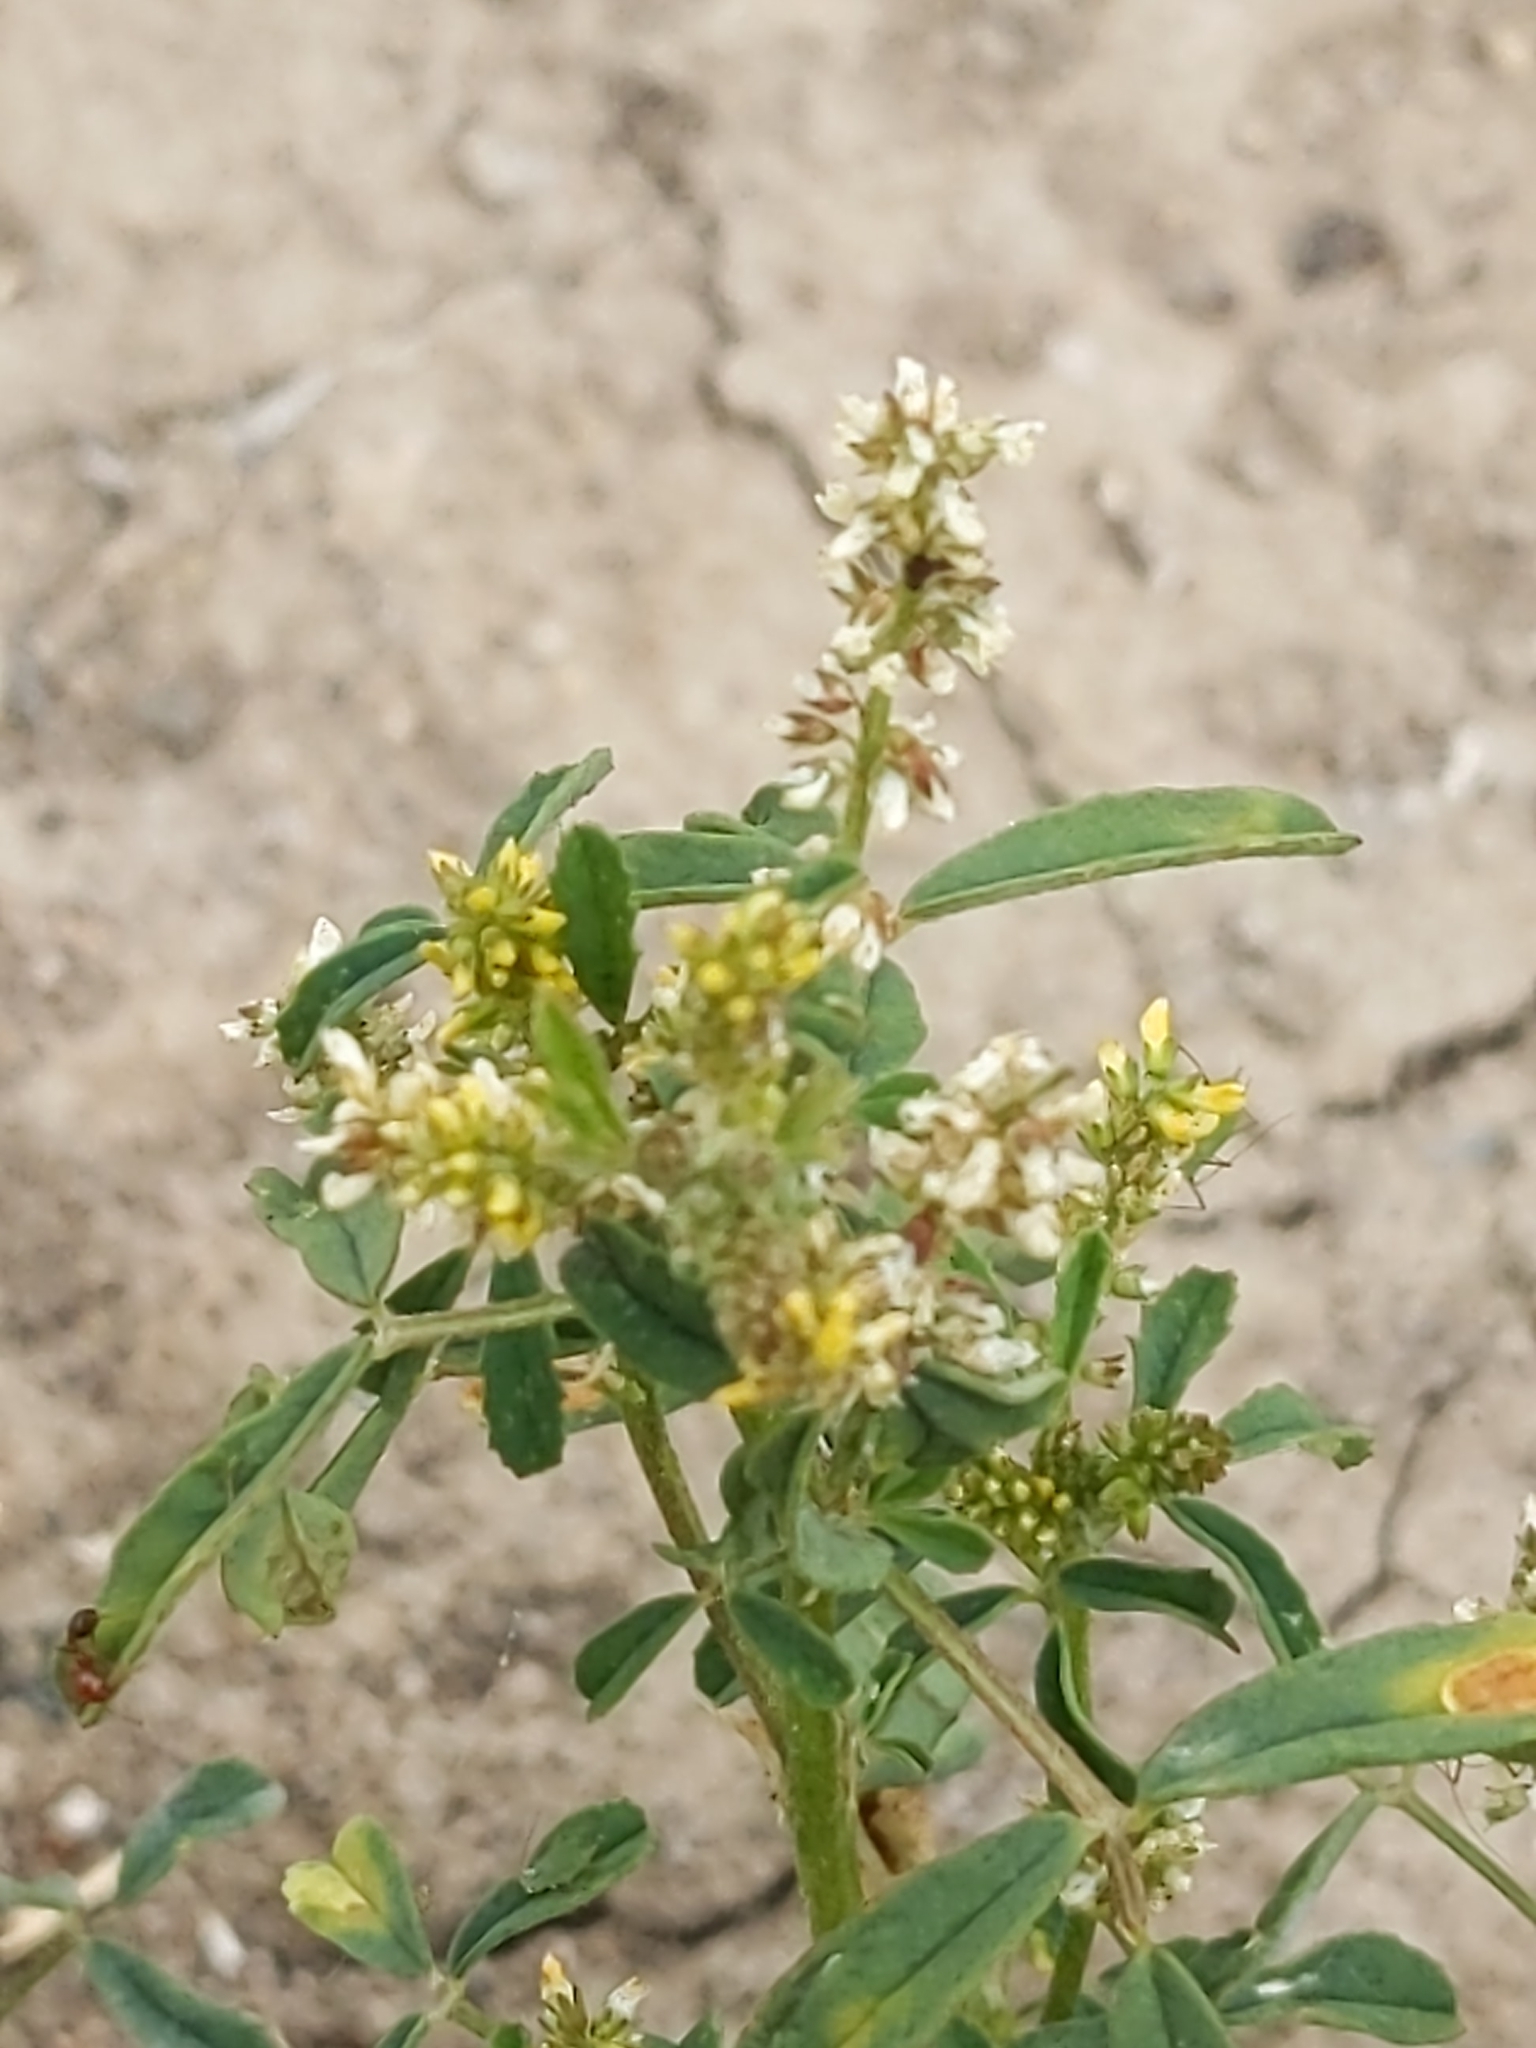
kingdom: Plantae
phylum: Tracheophyta
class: Magnoliopsida
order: Fabales
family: Fabaceae
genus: Melilotus
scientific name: Melilotus indicus
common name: Small melilot
